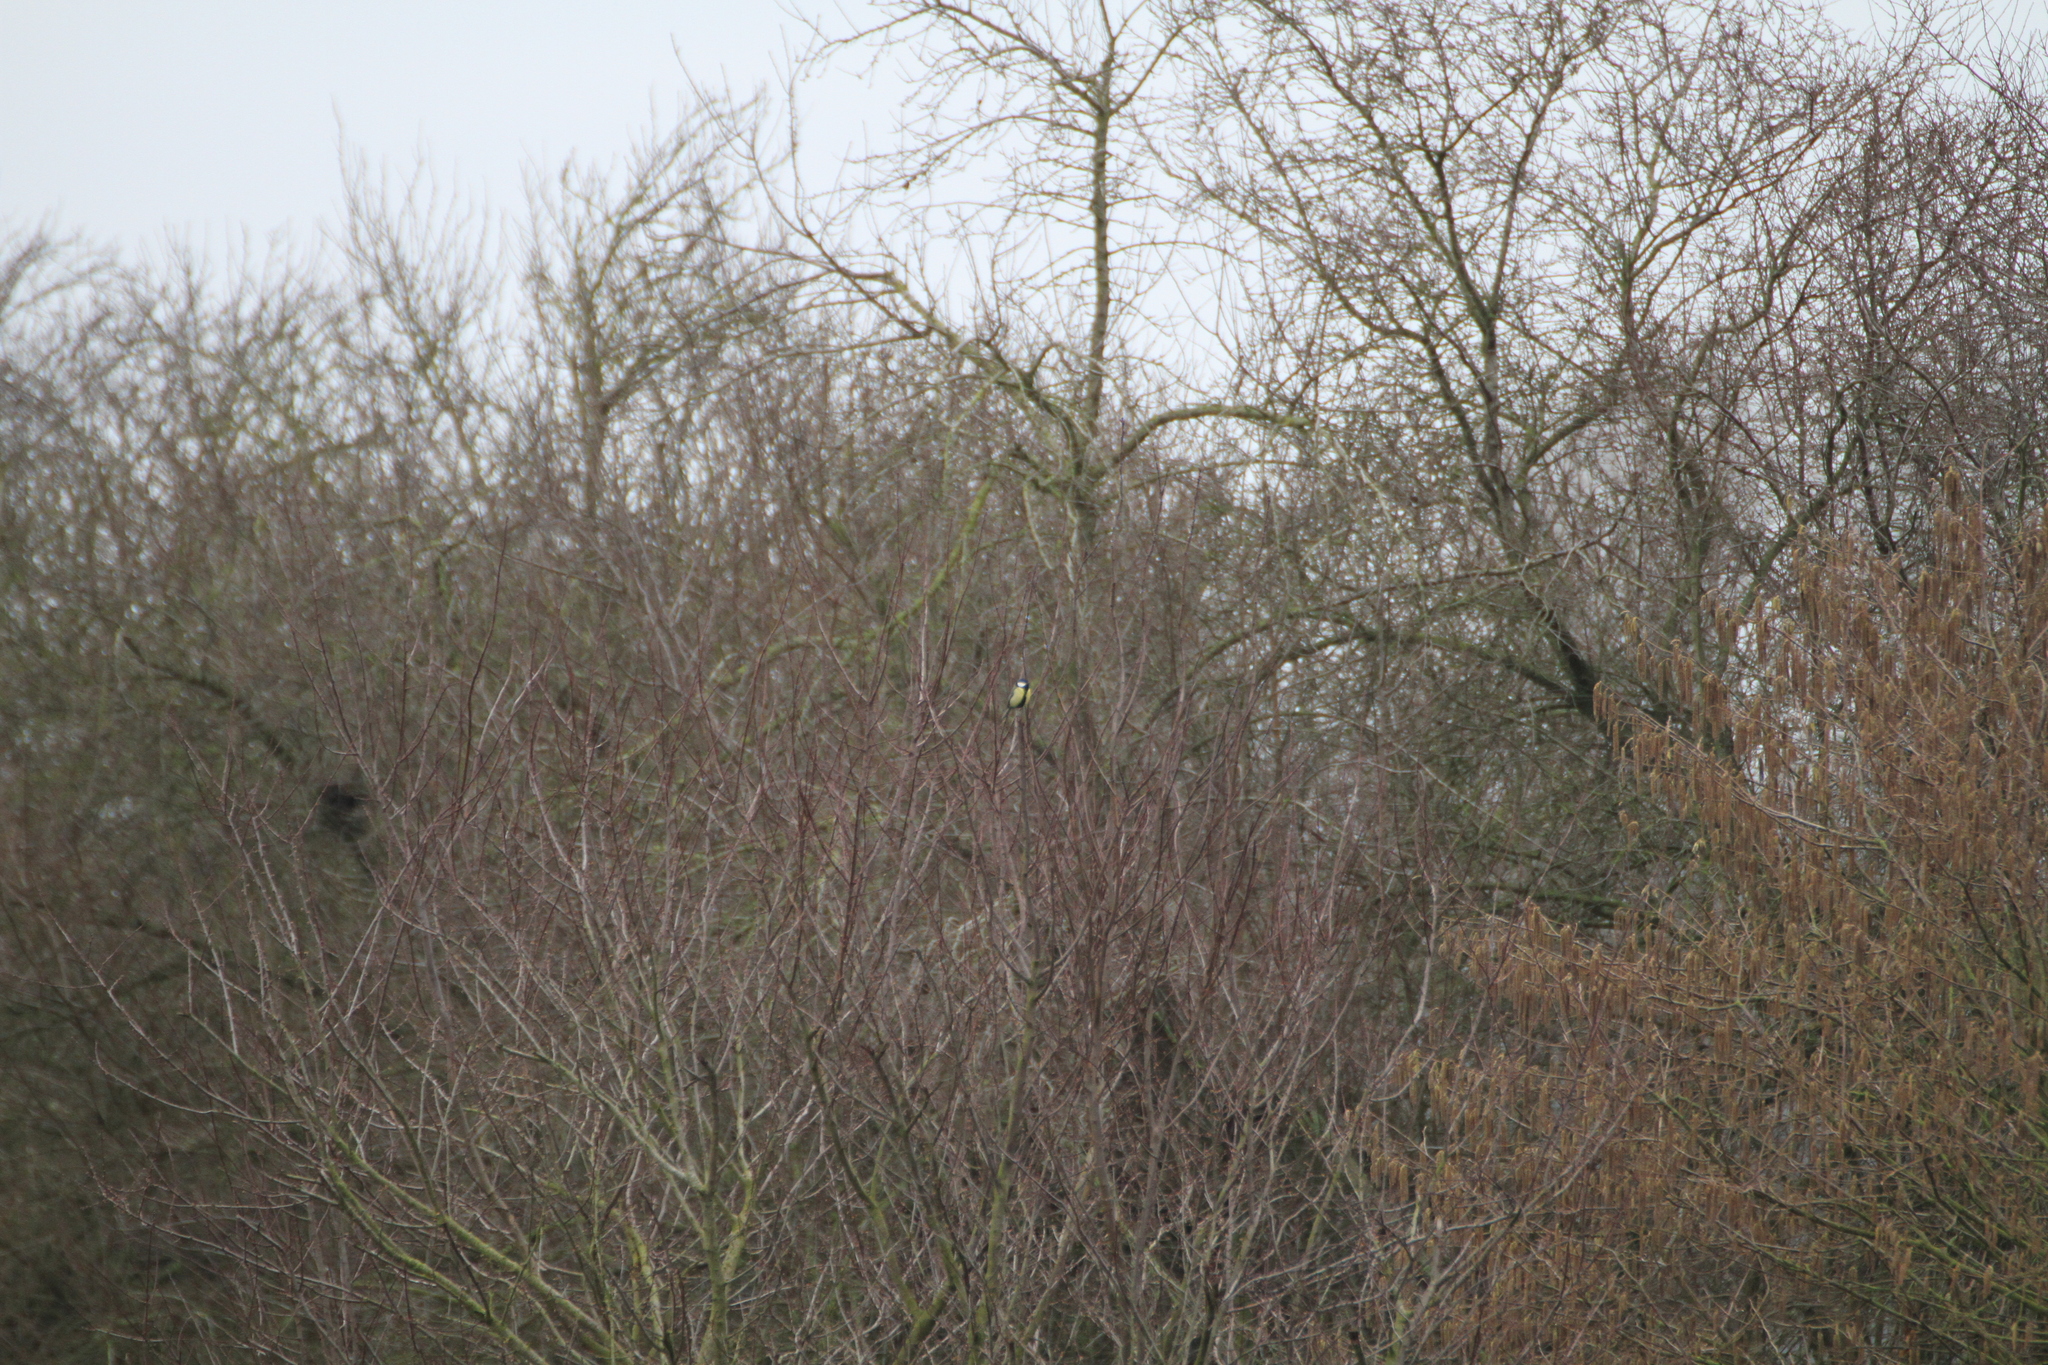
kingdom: Animalia
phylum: Chordata
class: Aves
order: Passeriformes
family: Paridae
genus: Parus
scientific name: Parus major
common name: Great tit
